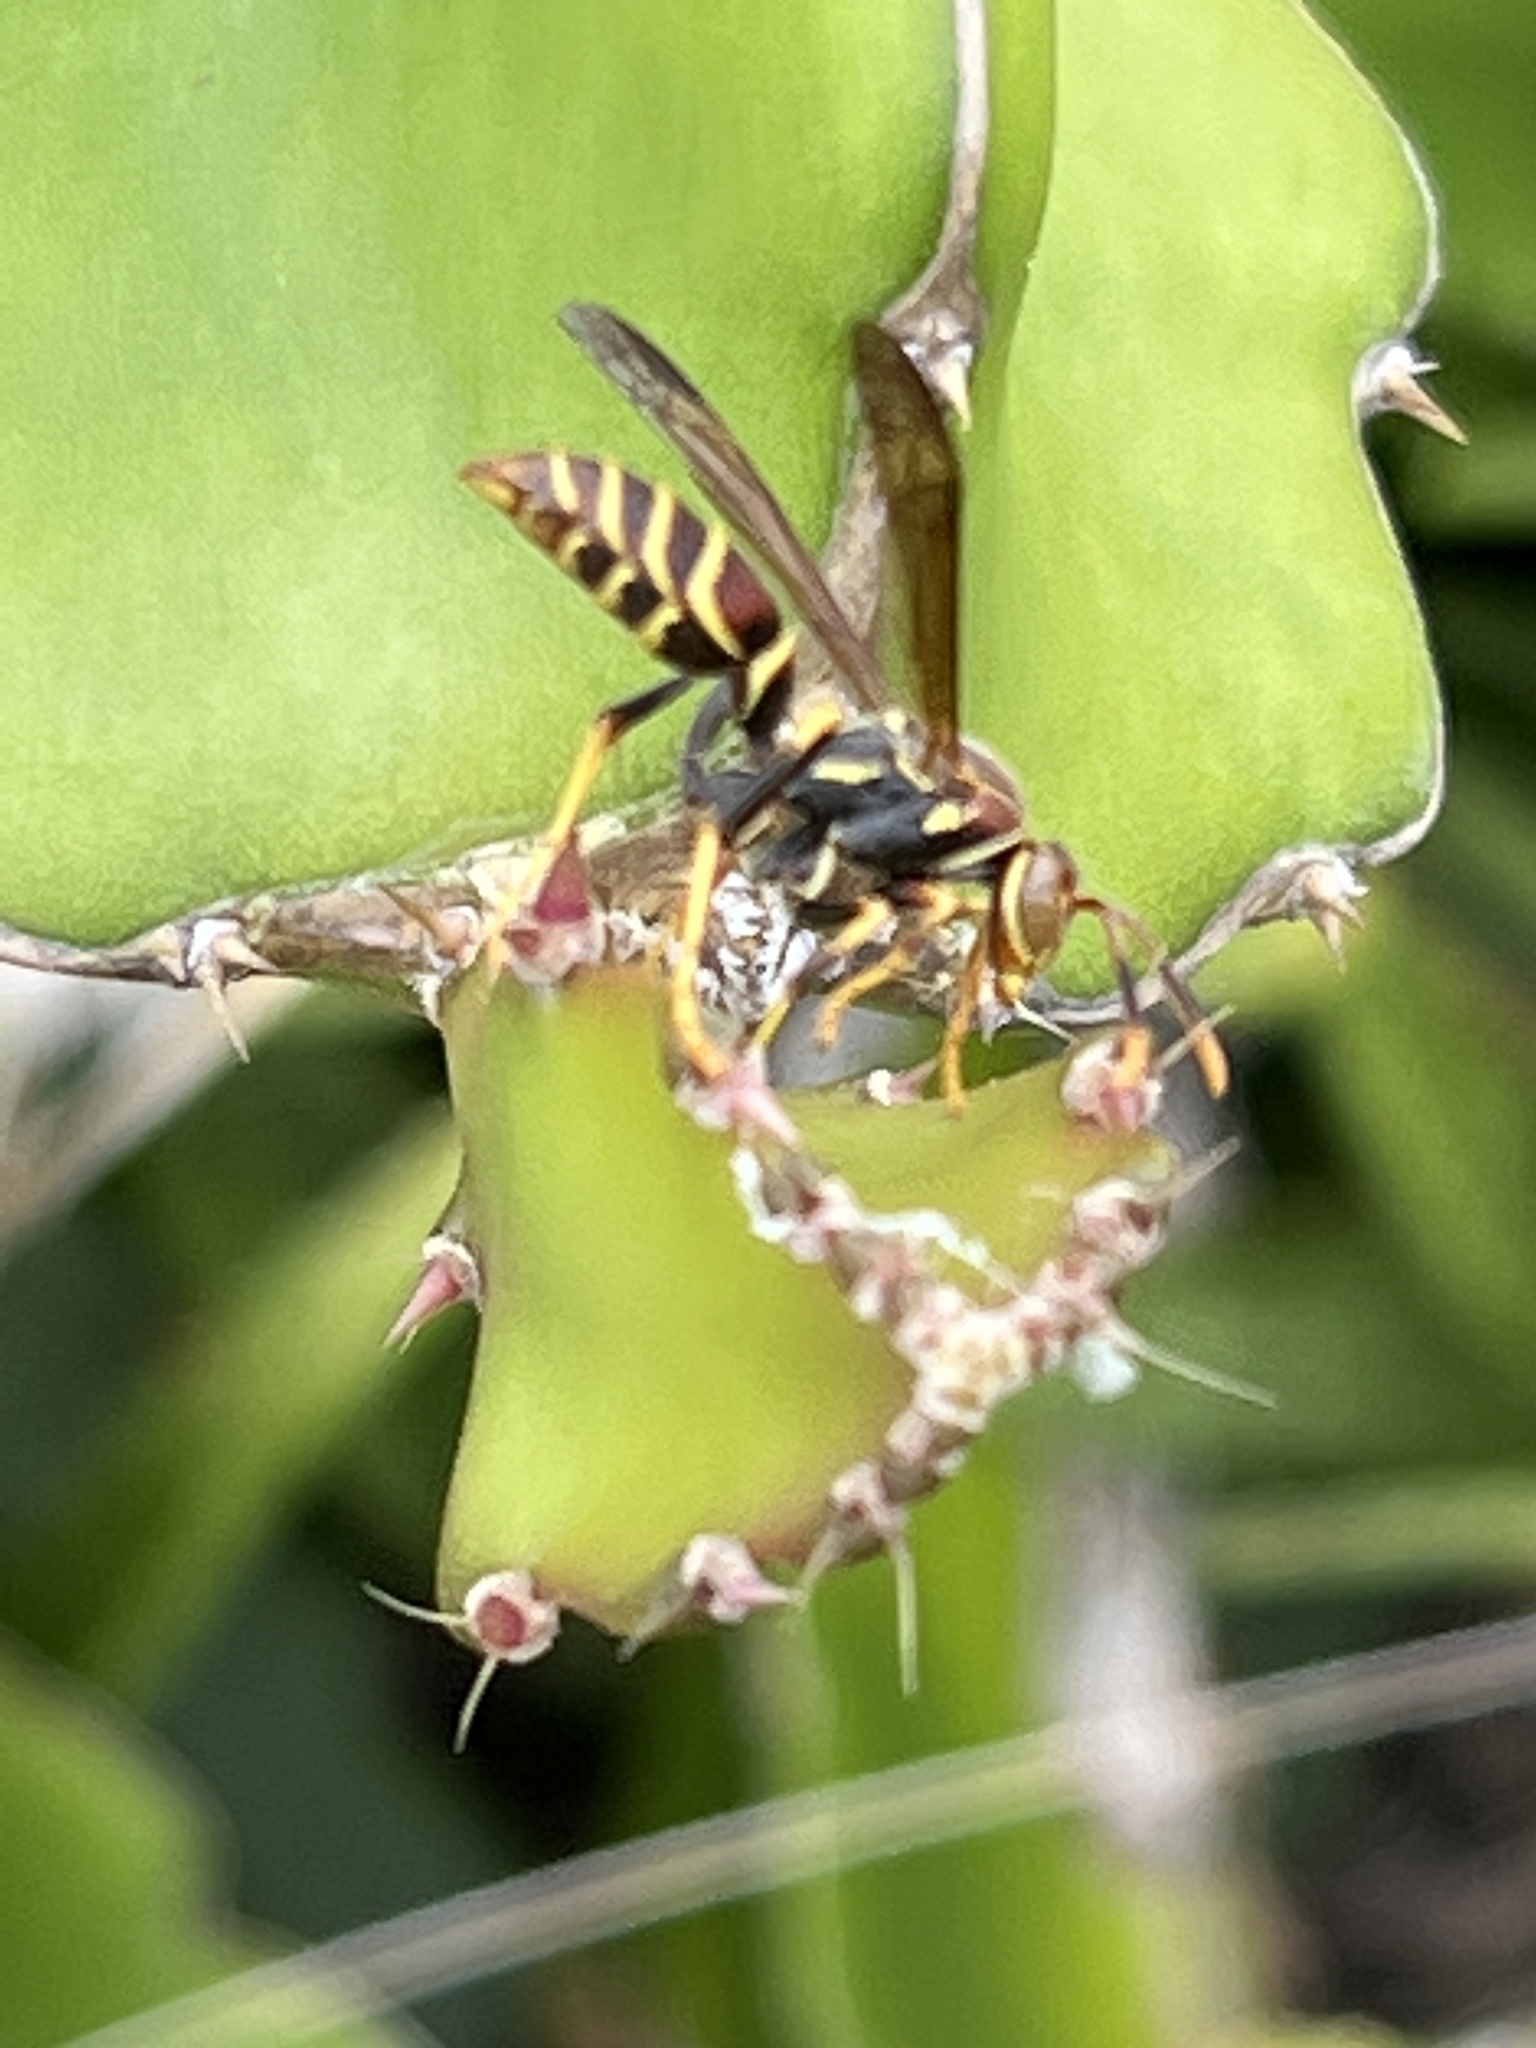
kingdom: Animalia
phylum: Arthropoda
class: Insecta
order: Hymenoptera
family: Eumenidae
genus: Polistes
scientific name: Polistes exclamans
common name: Paper wasp
